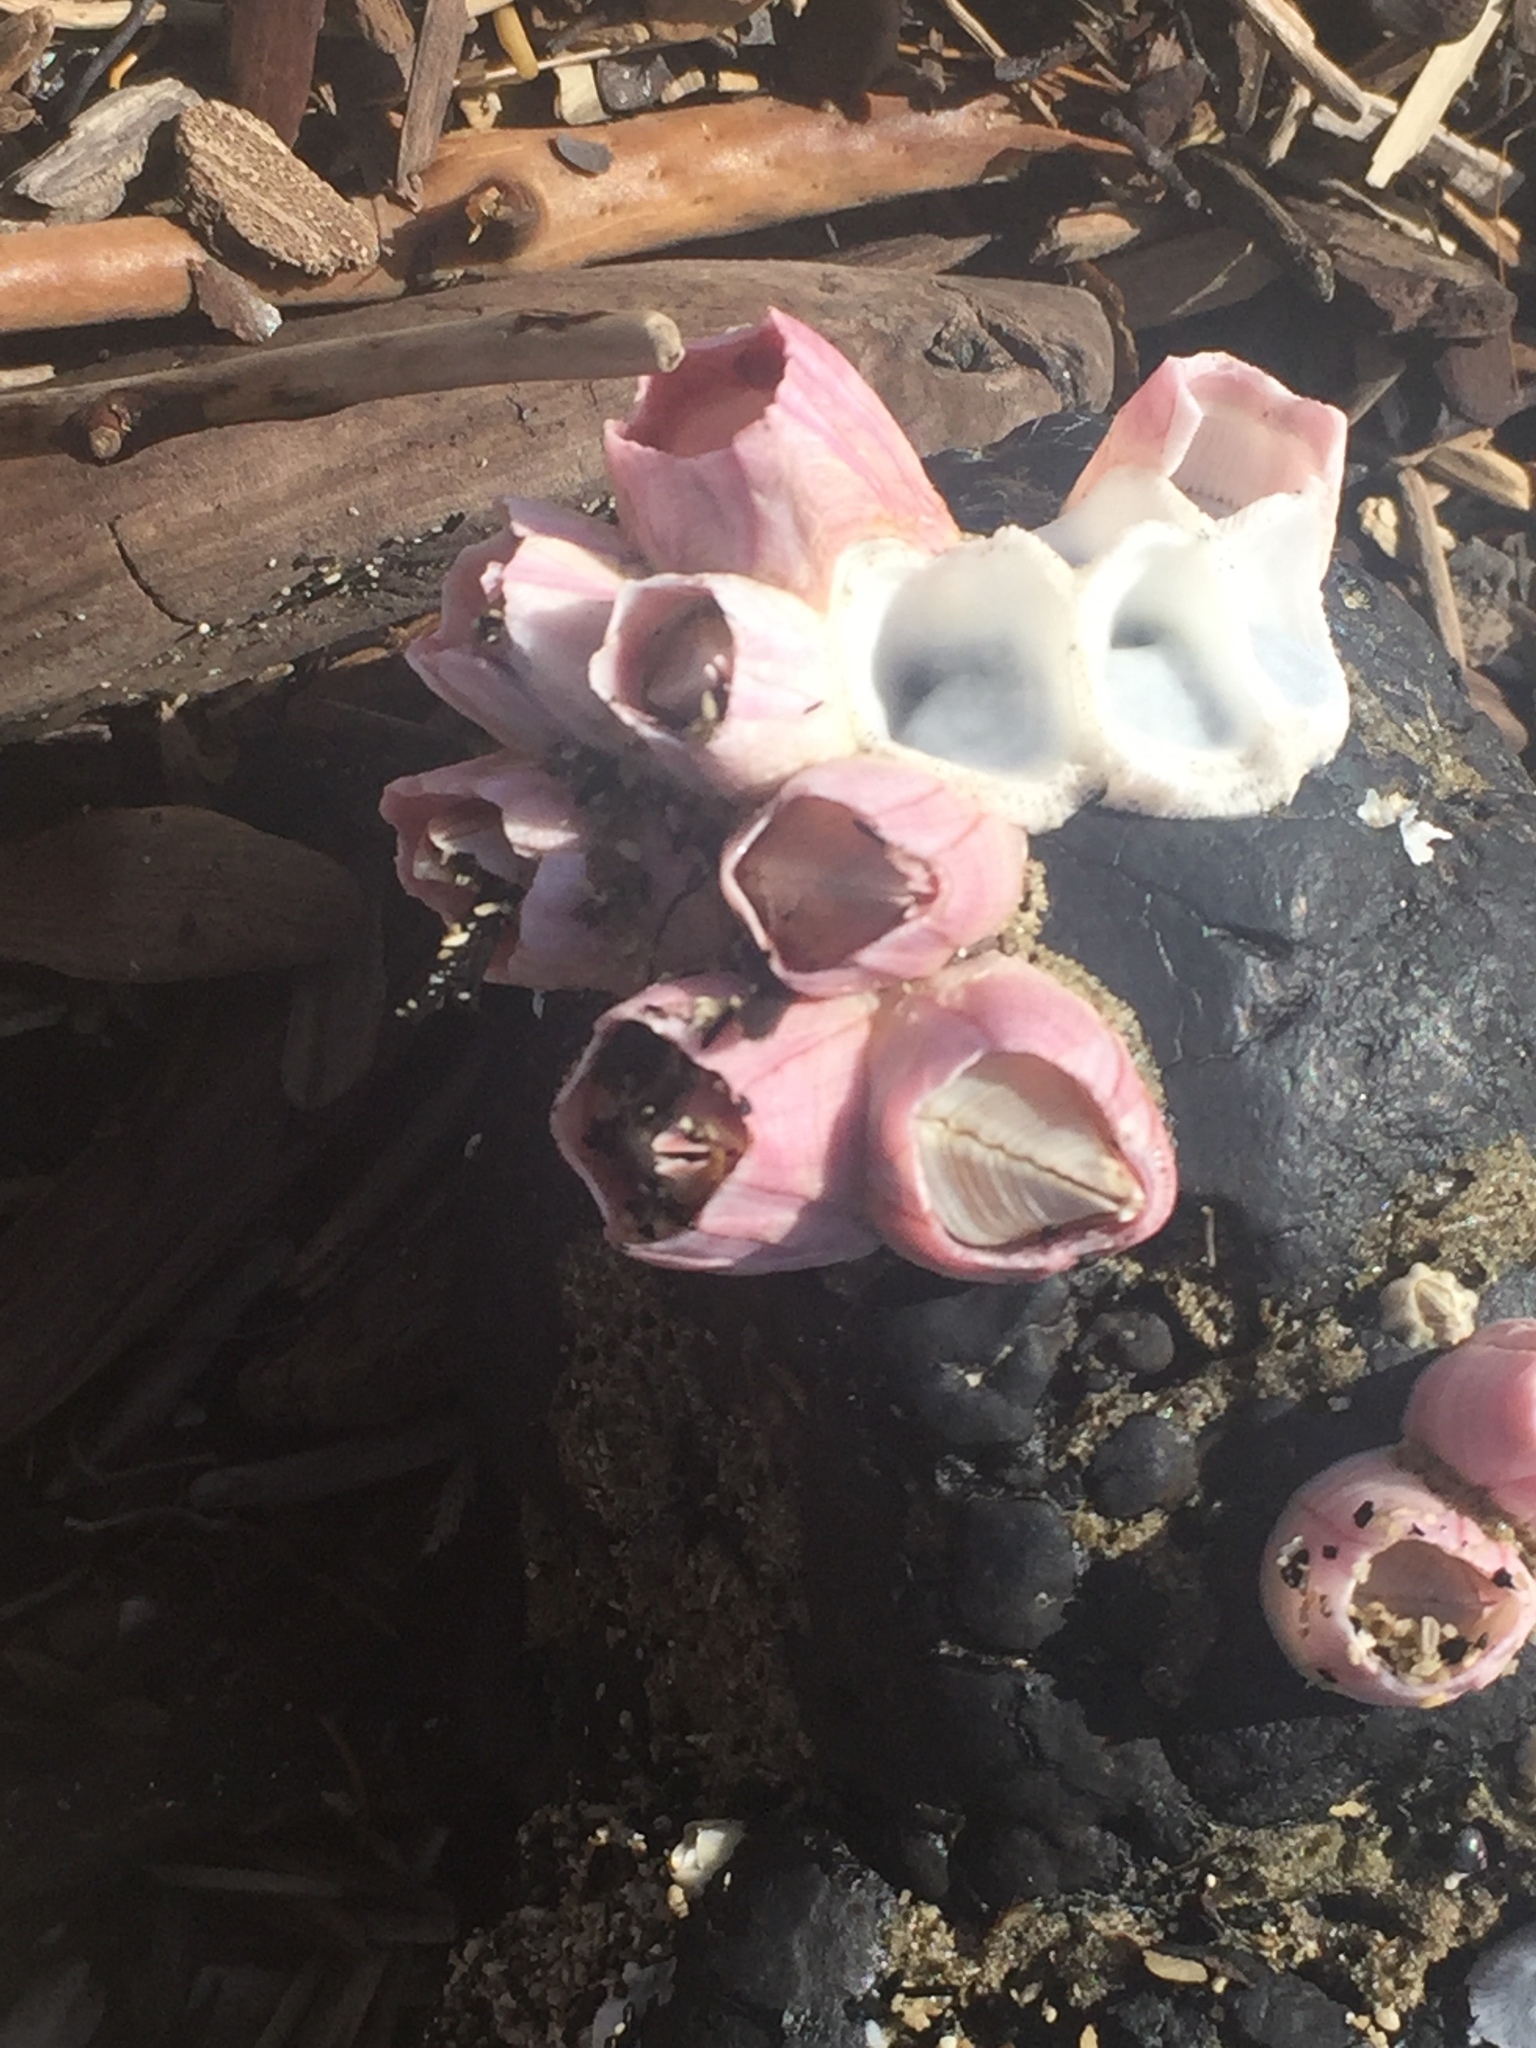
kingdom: Animalia
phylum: Arthropoda
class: Maxillopoda
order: Sessilia
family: Balanidae
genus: Notomegabalanus
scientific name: Notomegabalanus decorus
